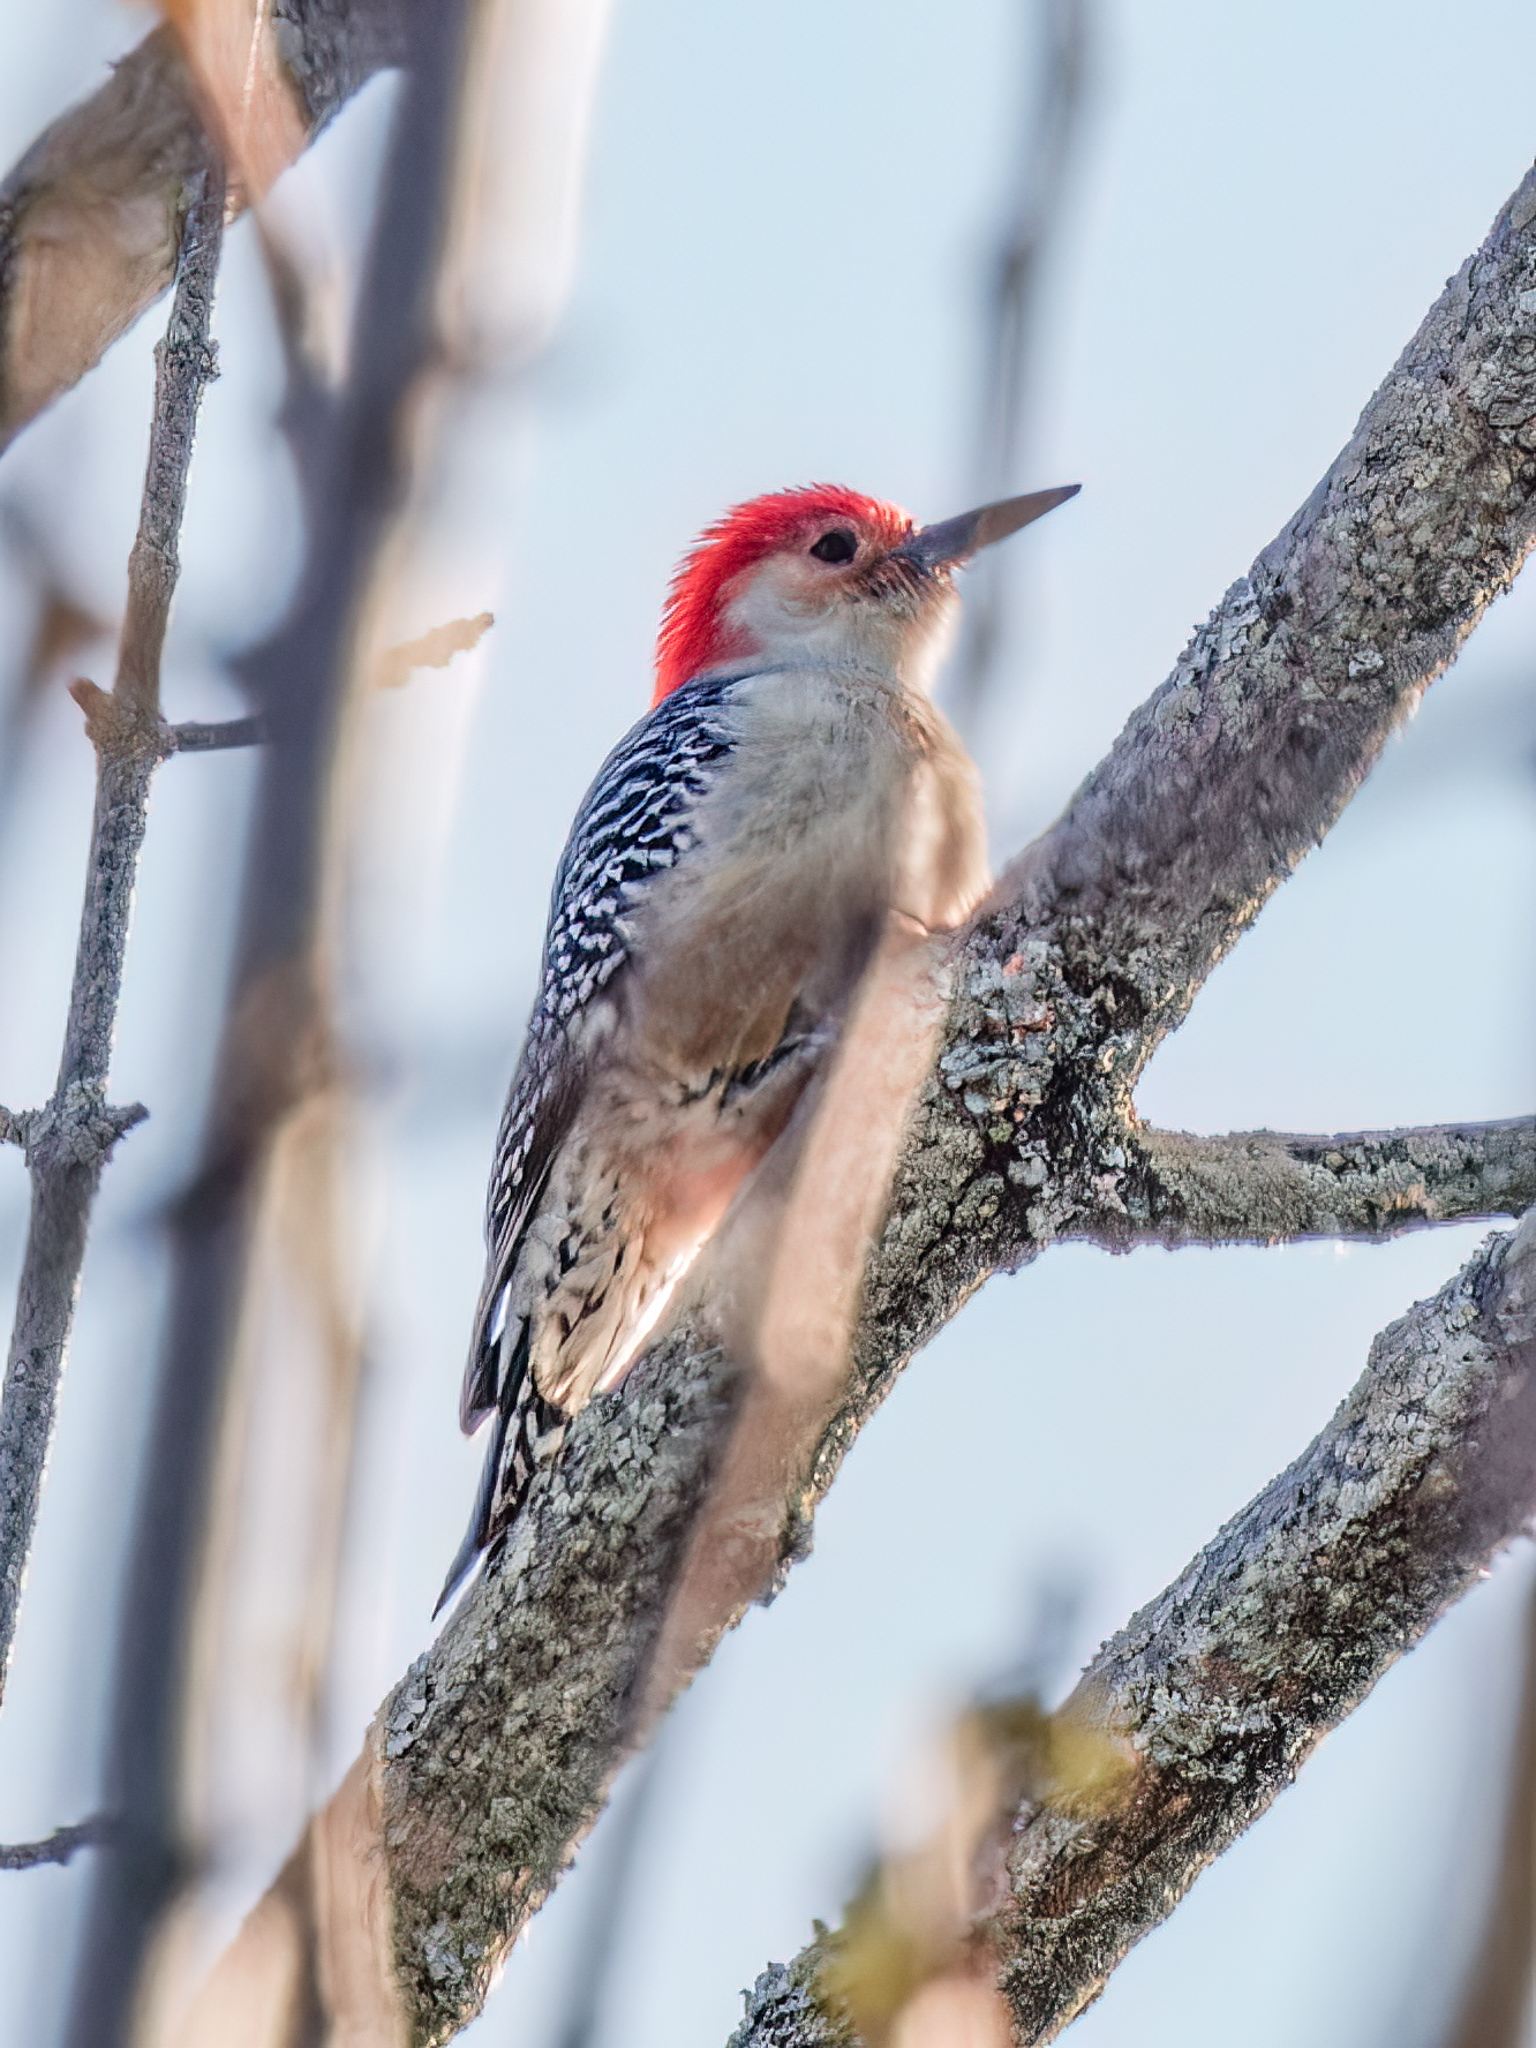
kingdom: Animalia
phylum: Chordata
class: Aves
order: Piciformes
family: Picidae
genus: Melanerpes
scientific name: Melanerpes carolinus
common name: Red-bellied woodpecker
